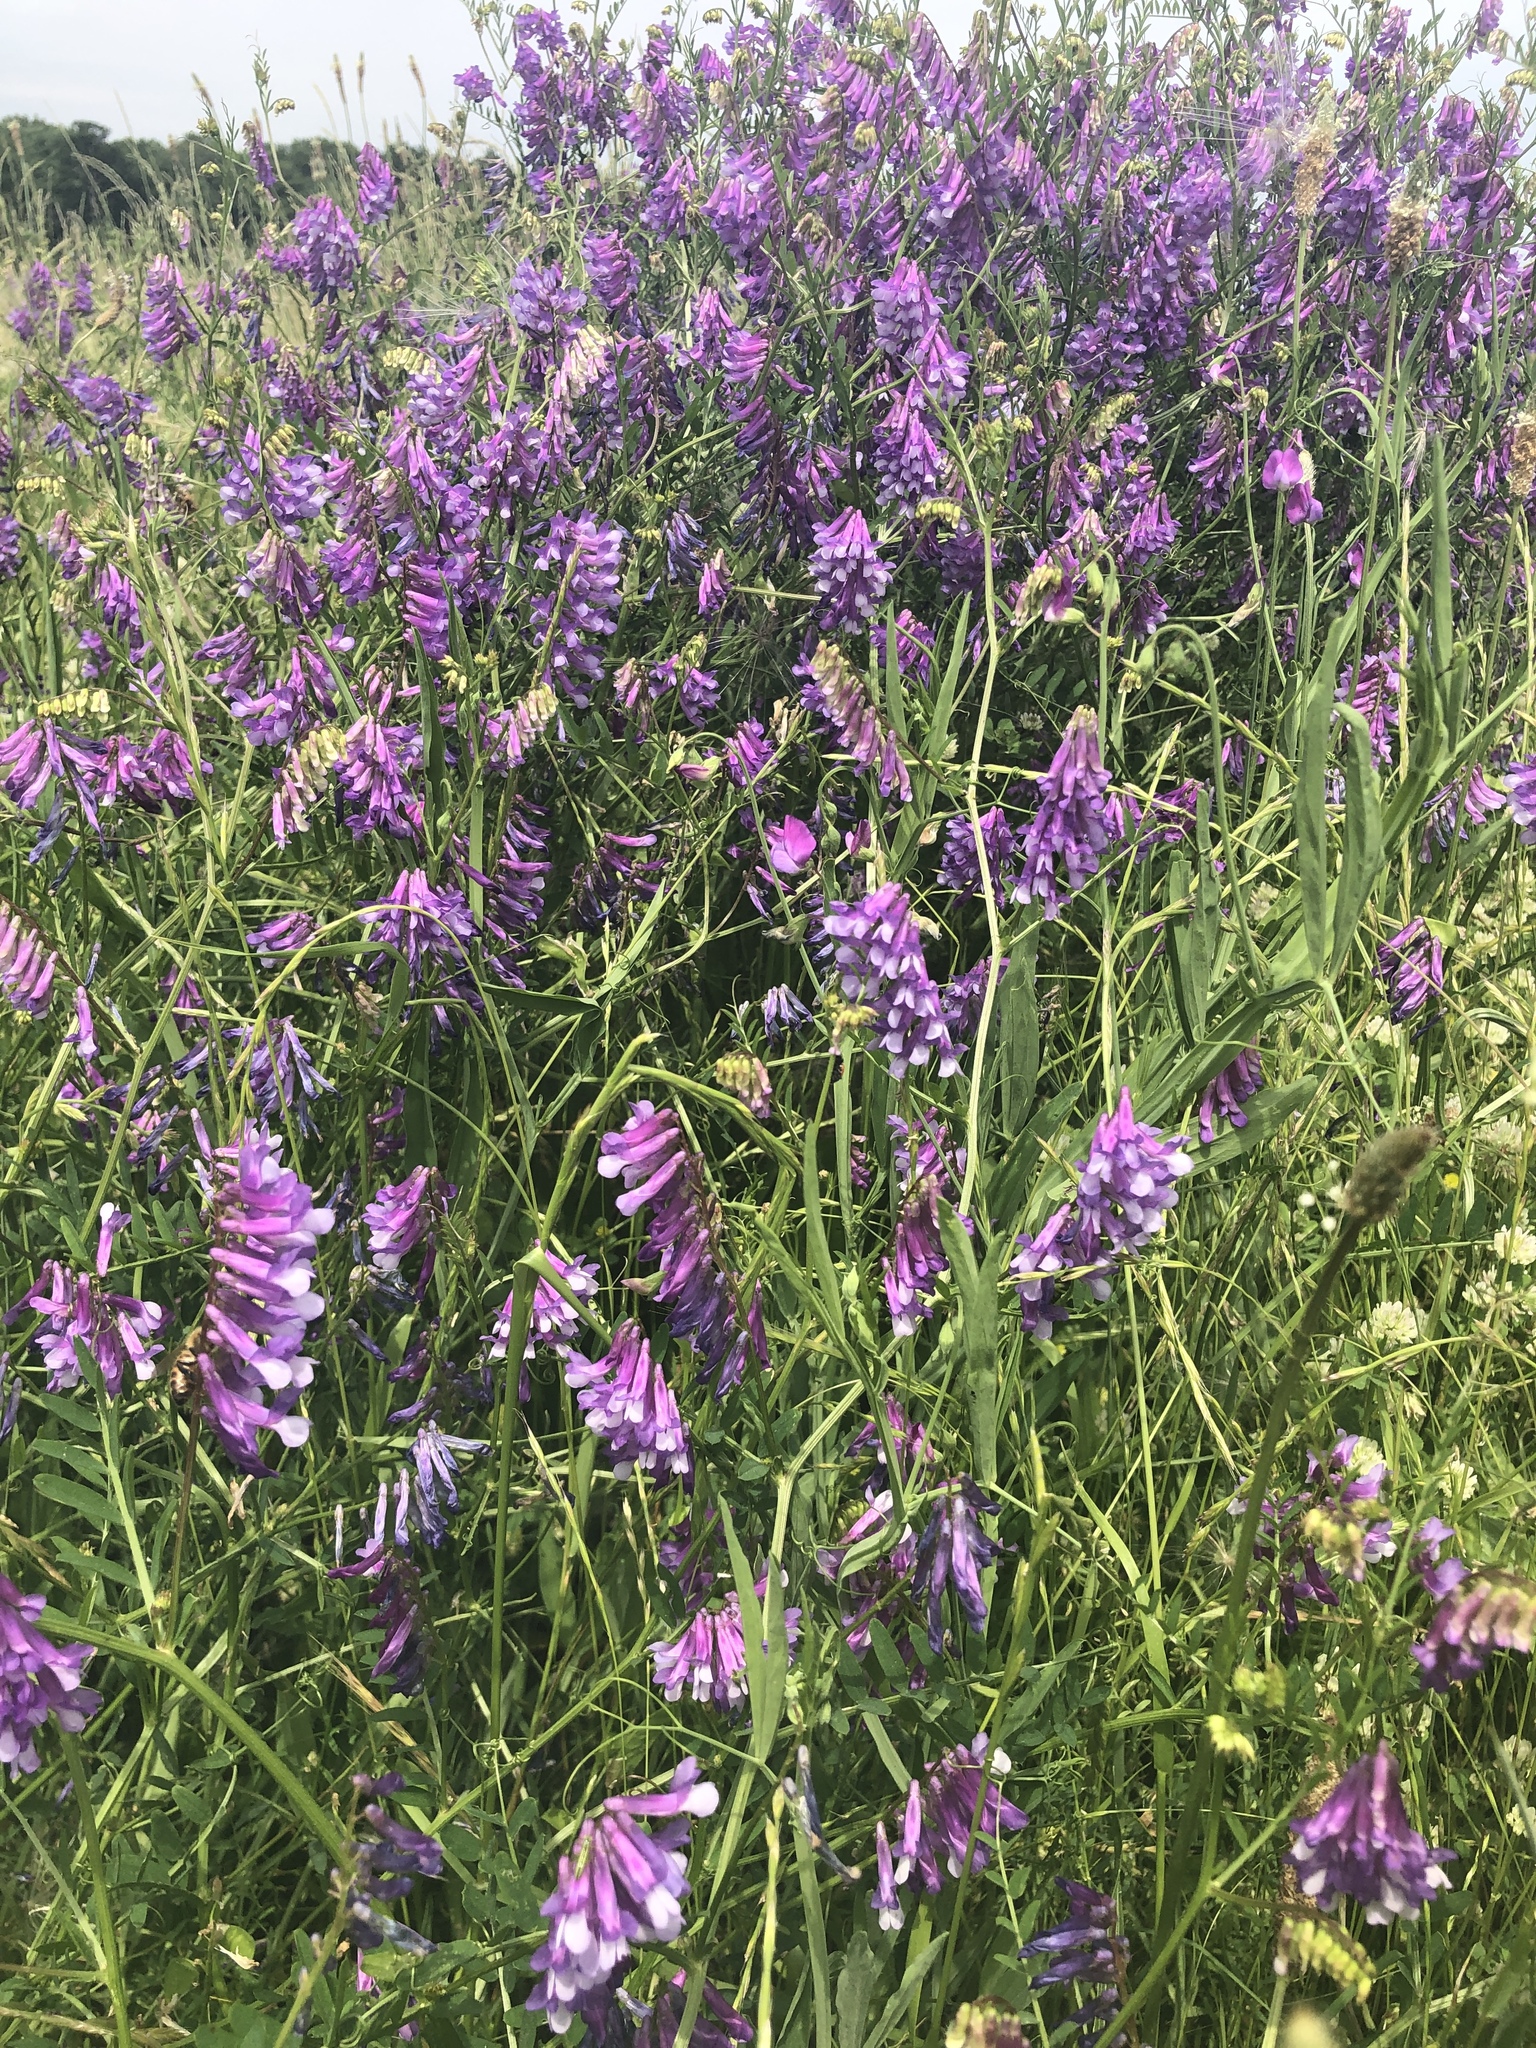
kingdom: Plantae
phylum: Tracheophyta
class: Magnoliopsida
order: Fabales
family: Fabaceae
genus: Vicia
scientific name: Vicia villosa
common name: Fodder vetch
